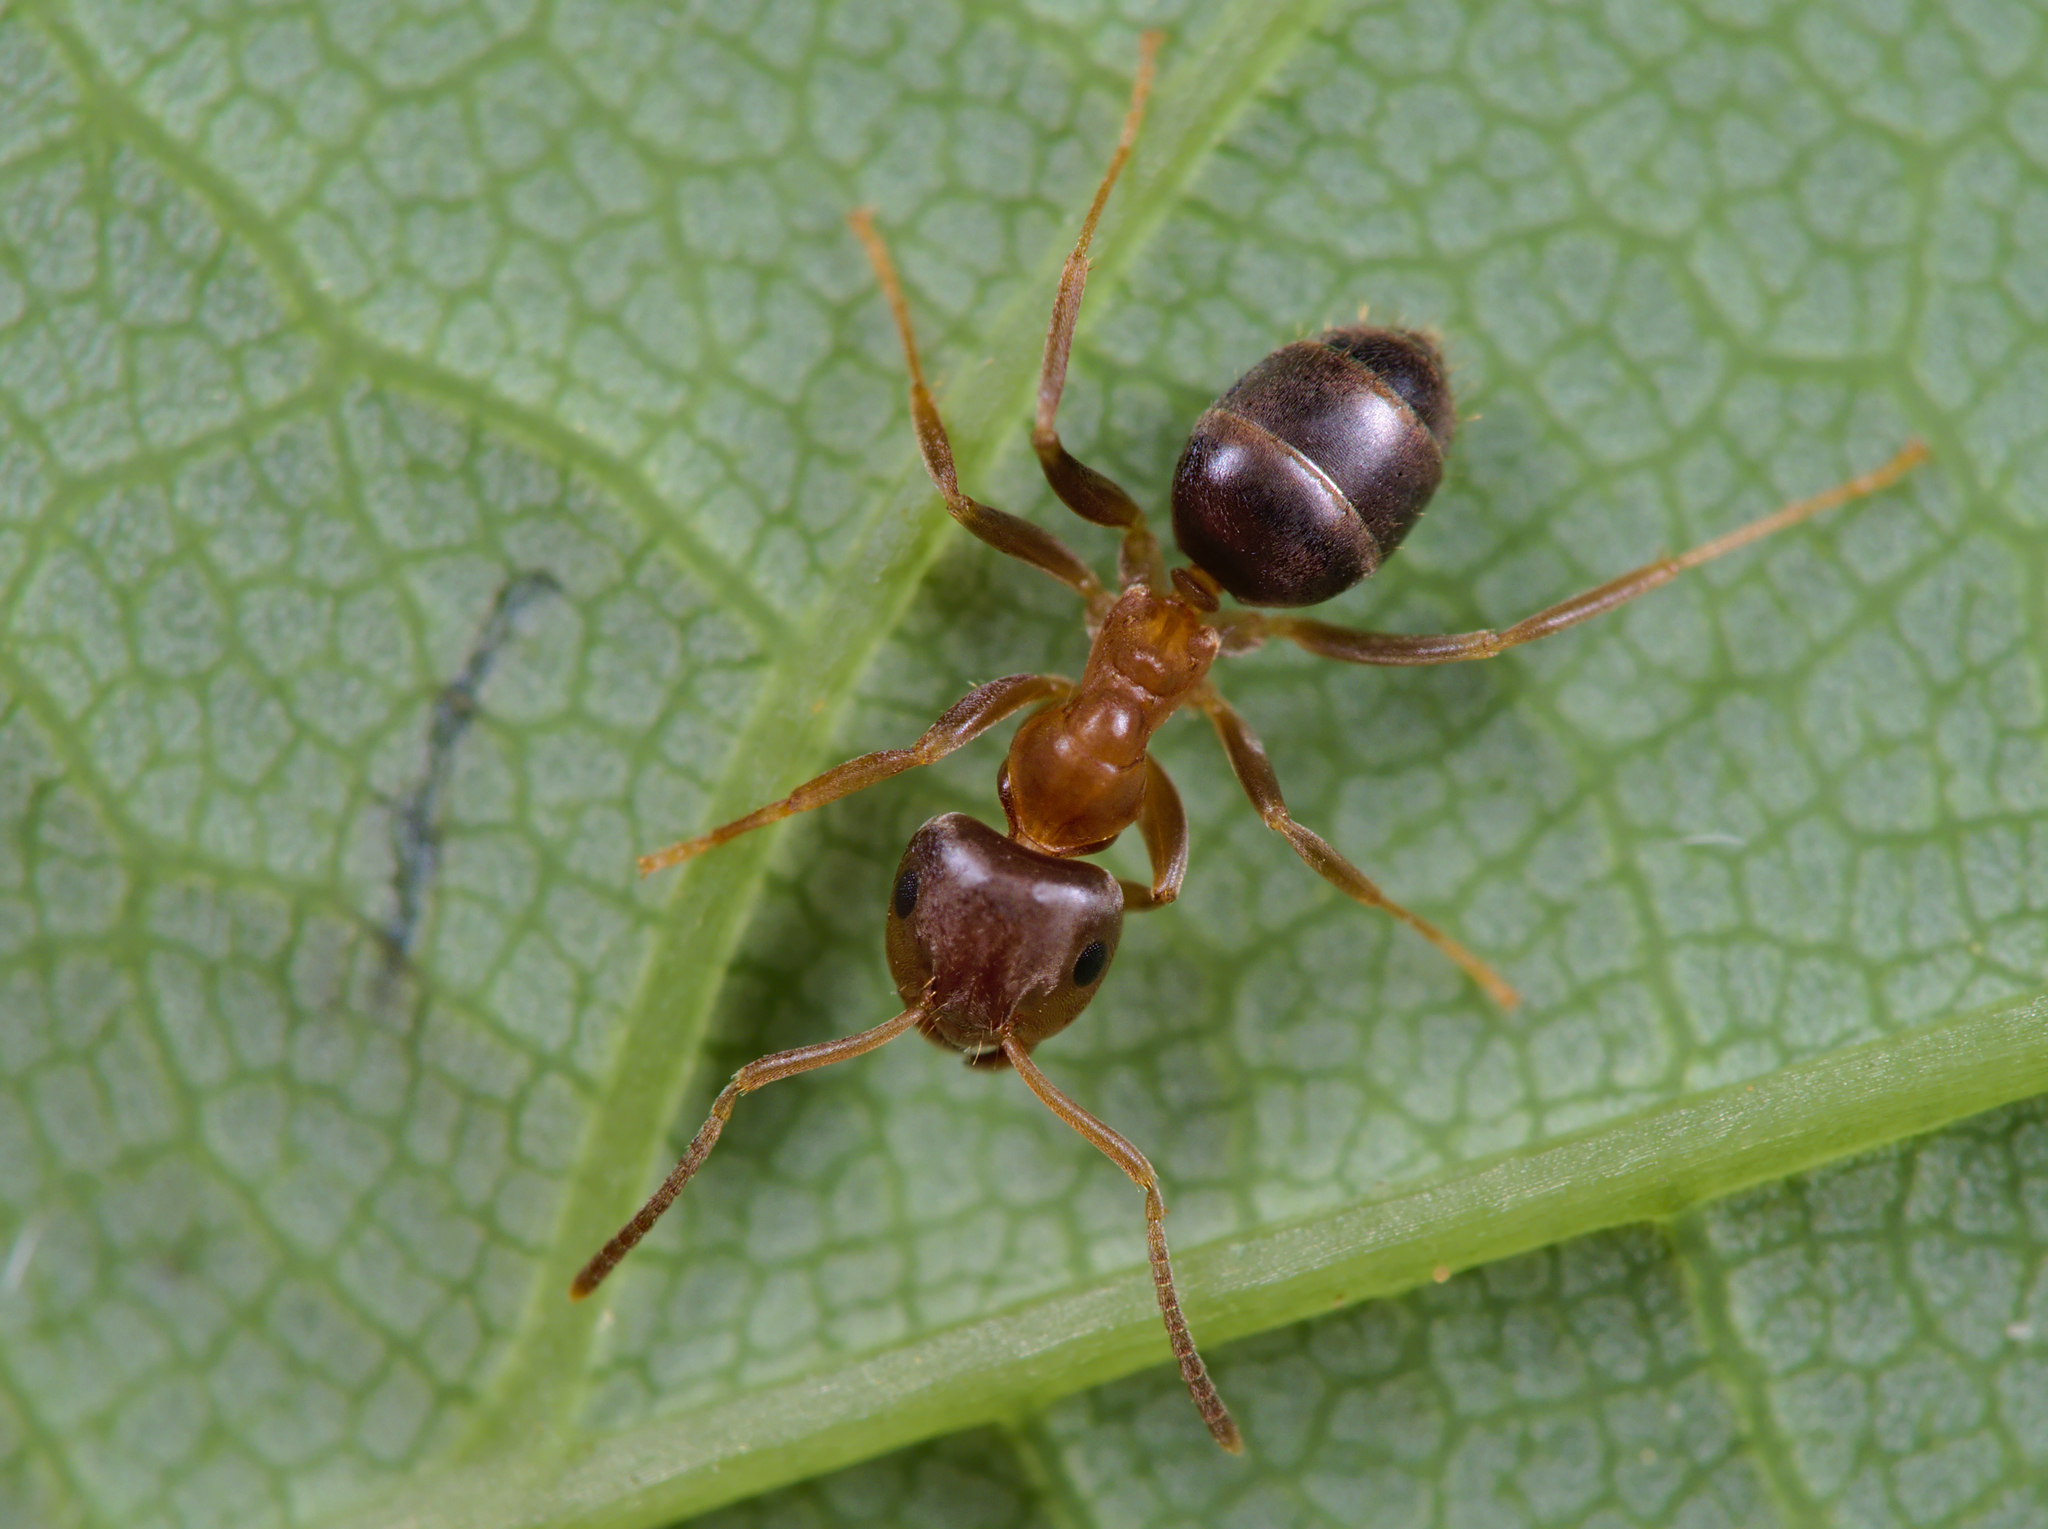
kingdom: Animalia
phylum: Arthropoda
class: Insecta
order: Hymenoptera
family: Formicidae
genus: Lasius
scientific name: Lasius brunneus
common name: Brown ant
